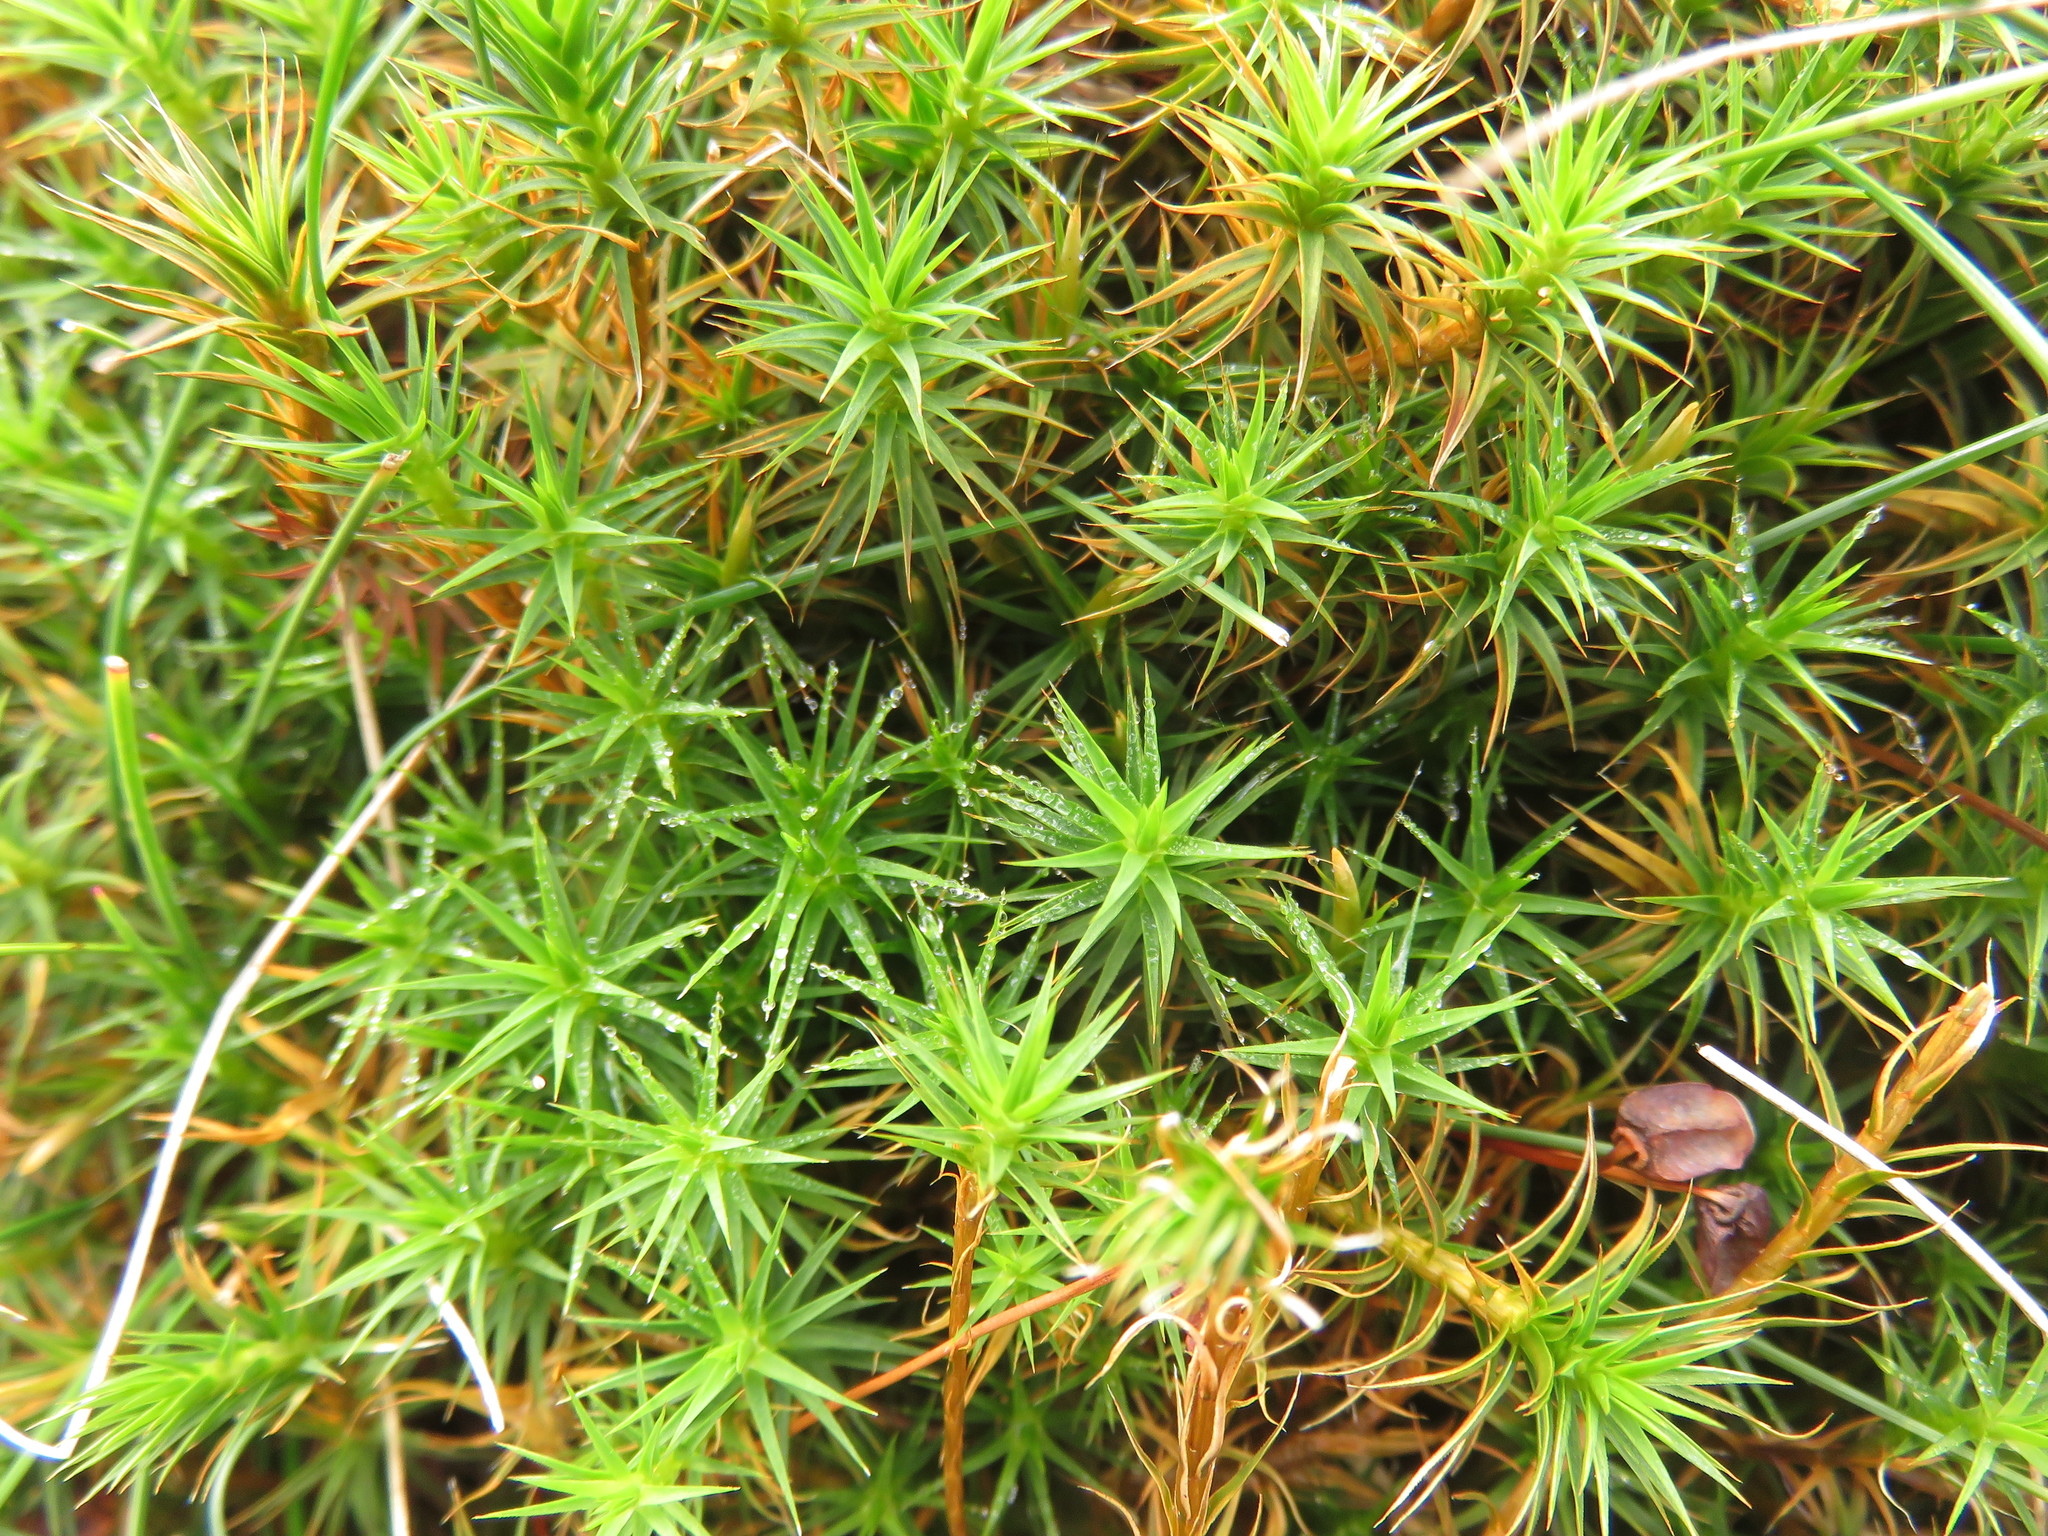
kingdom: Plantae
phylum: Bryophyta
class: Polytrichopsida
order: Polytrichales
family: Polytrichaceae
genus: Polytrichum
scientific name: Polytrichum commune
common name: Common haircap
